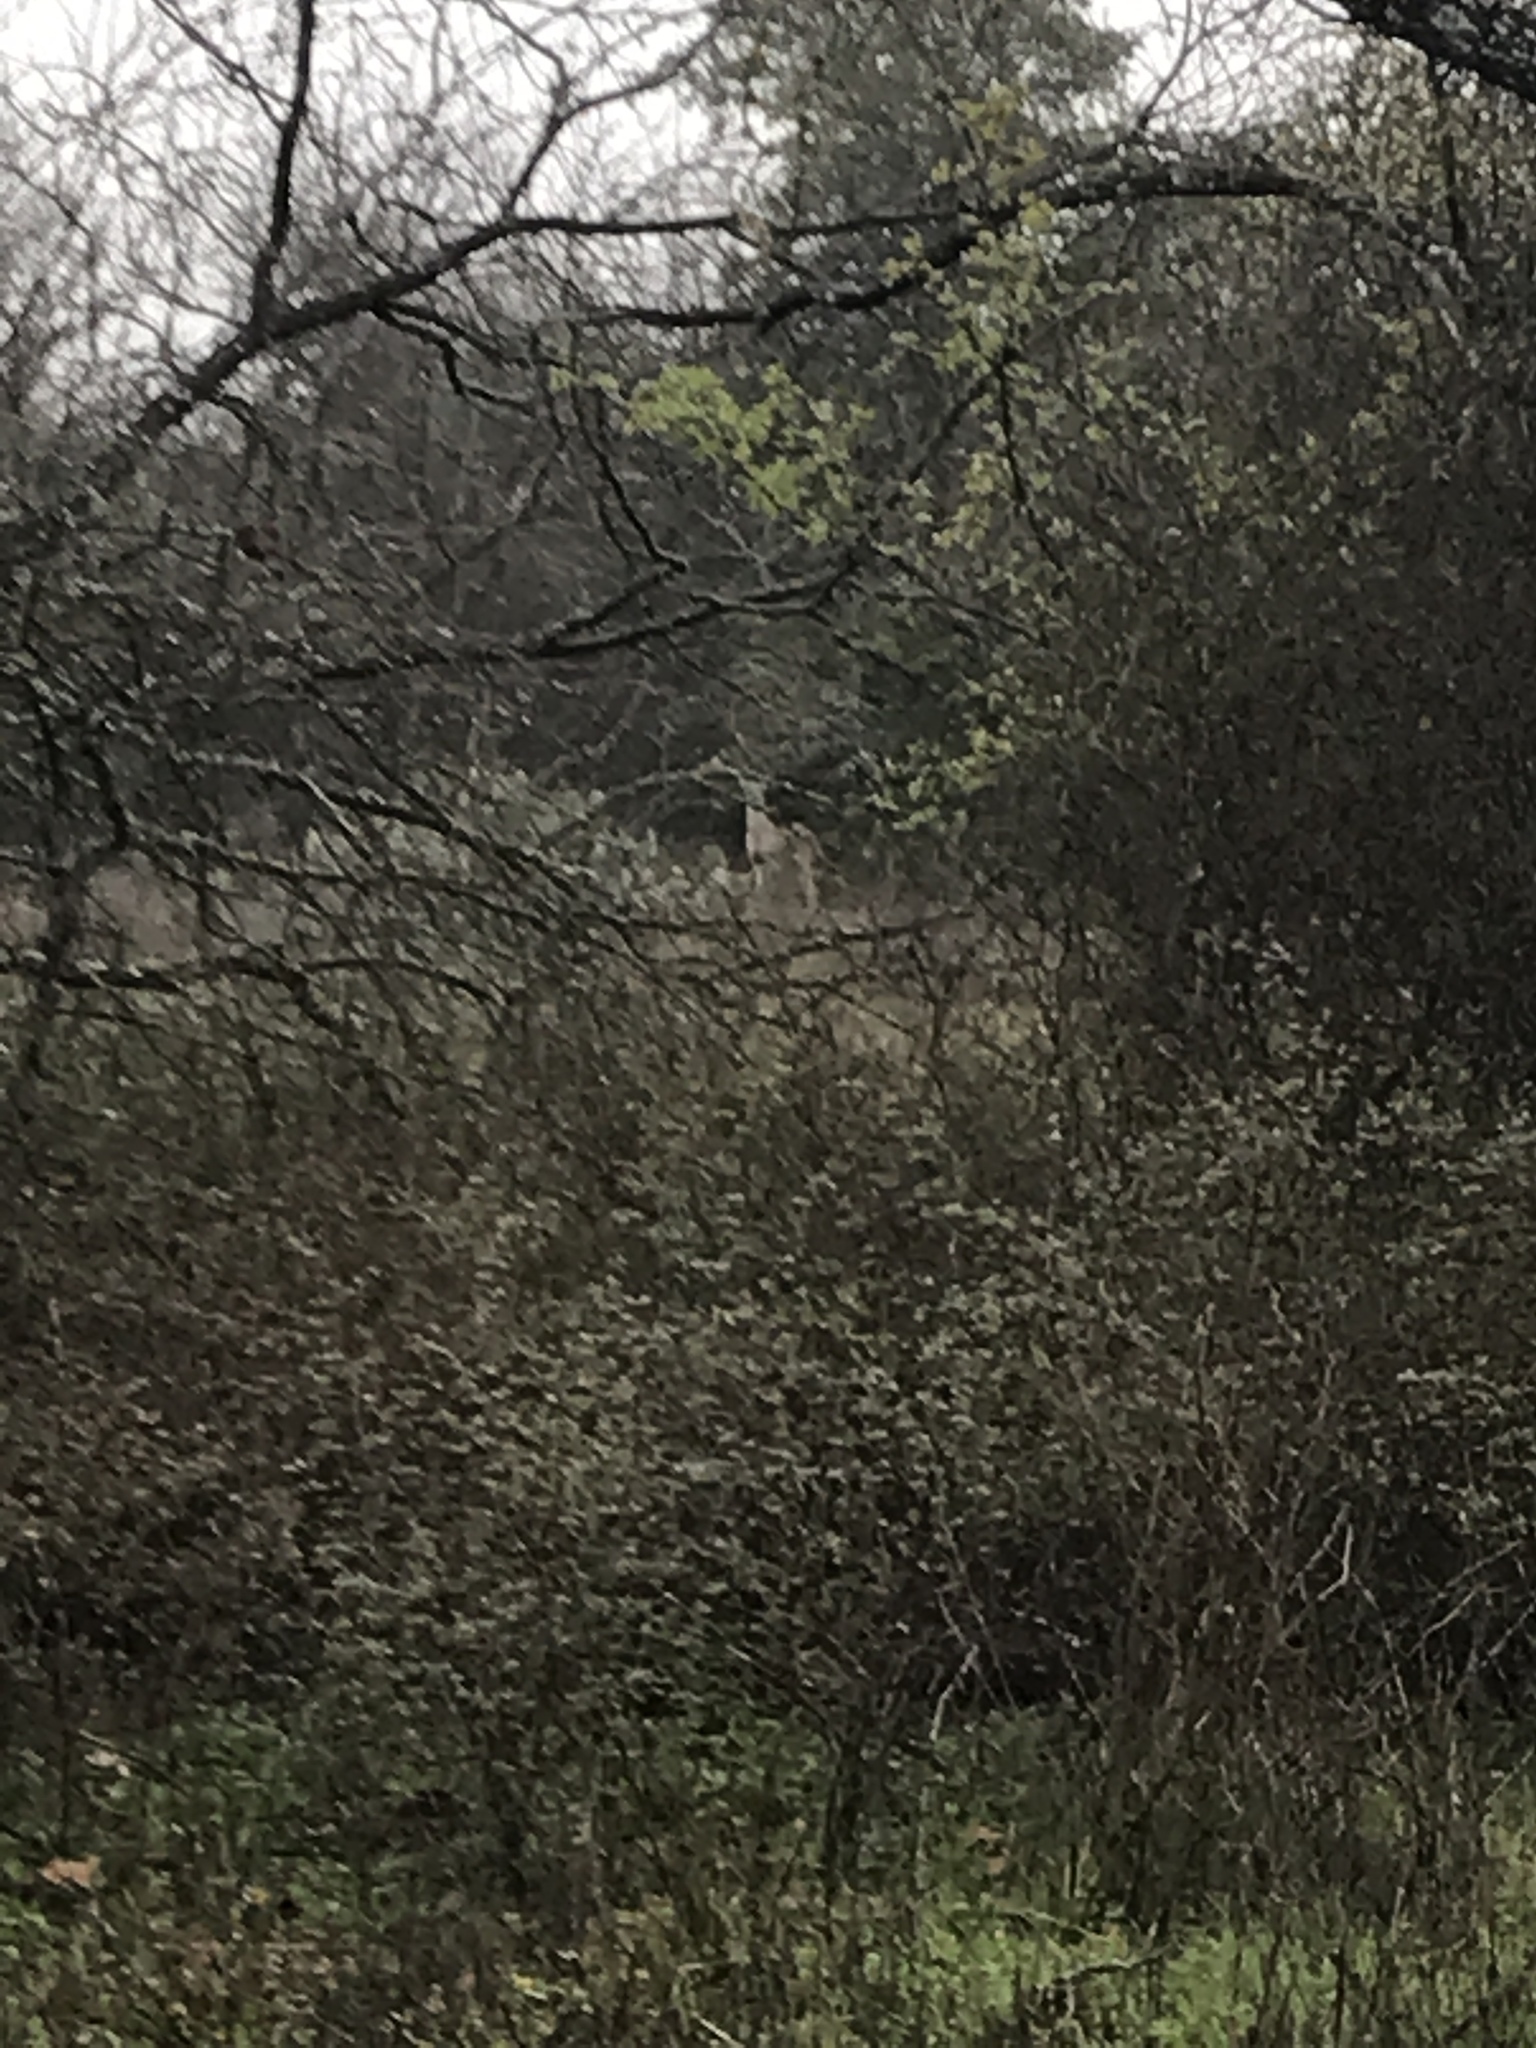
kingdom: Animalia
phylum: Chordata
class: Mammalia
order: Artiodactyla
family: Cervidae
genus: Odocoileus
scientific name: Odocoileus virginianus
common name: White-tailed deer
